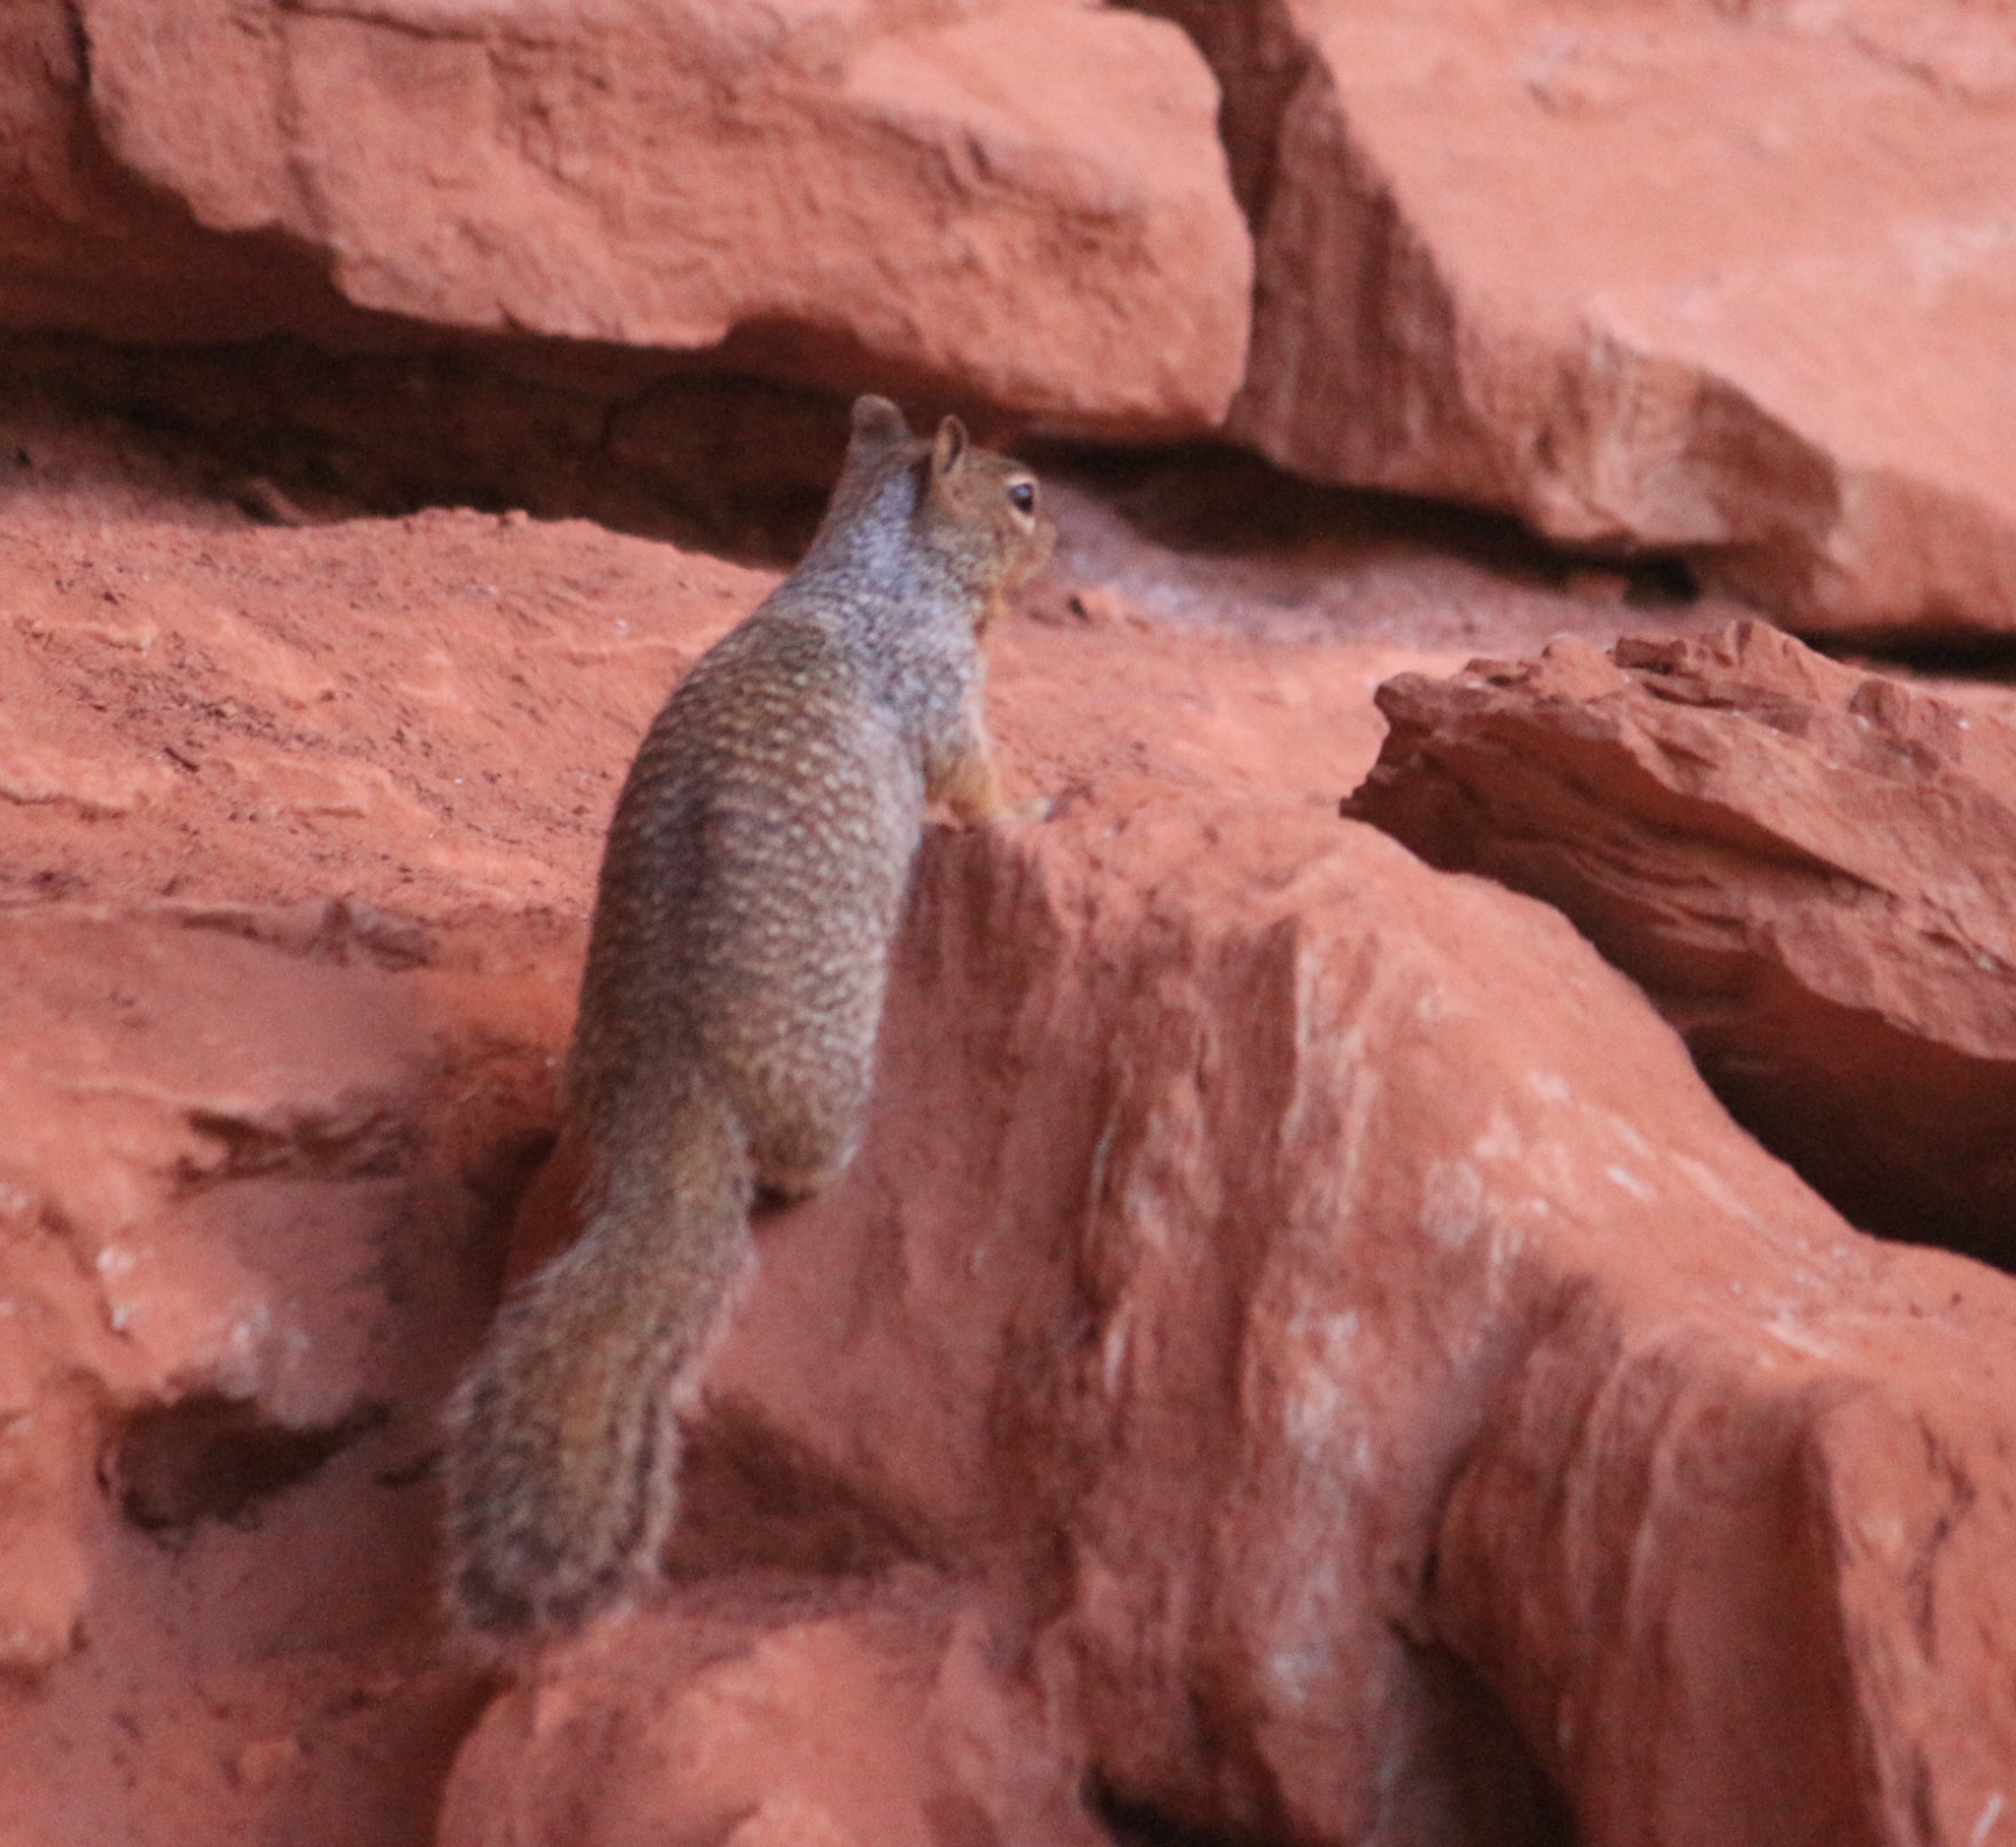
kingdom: Animalia
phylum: Chordata
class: Mammalia
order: Rodentia
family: Sciuridae
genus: Otospermophilus
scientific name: Otospermophilus variegatus
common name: Rock squirrel
